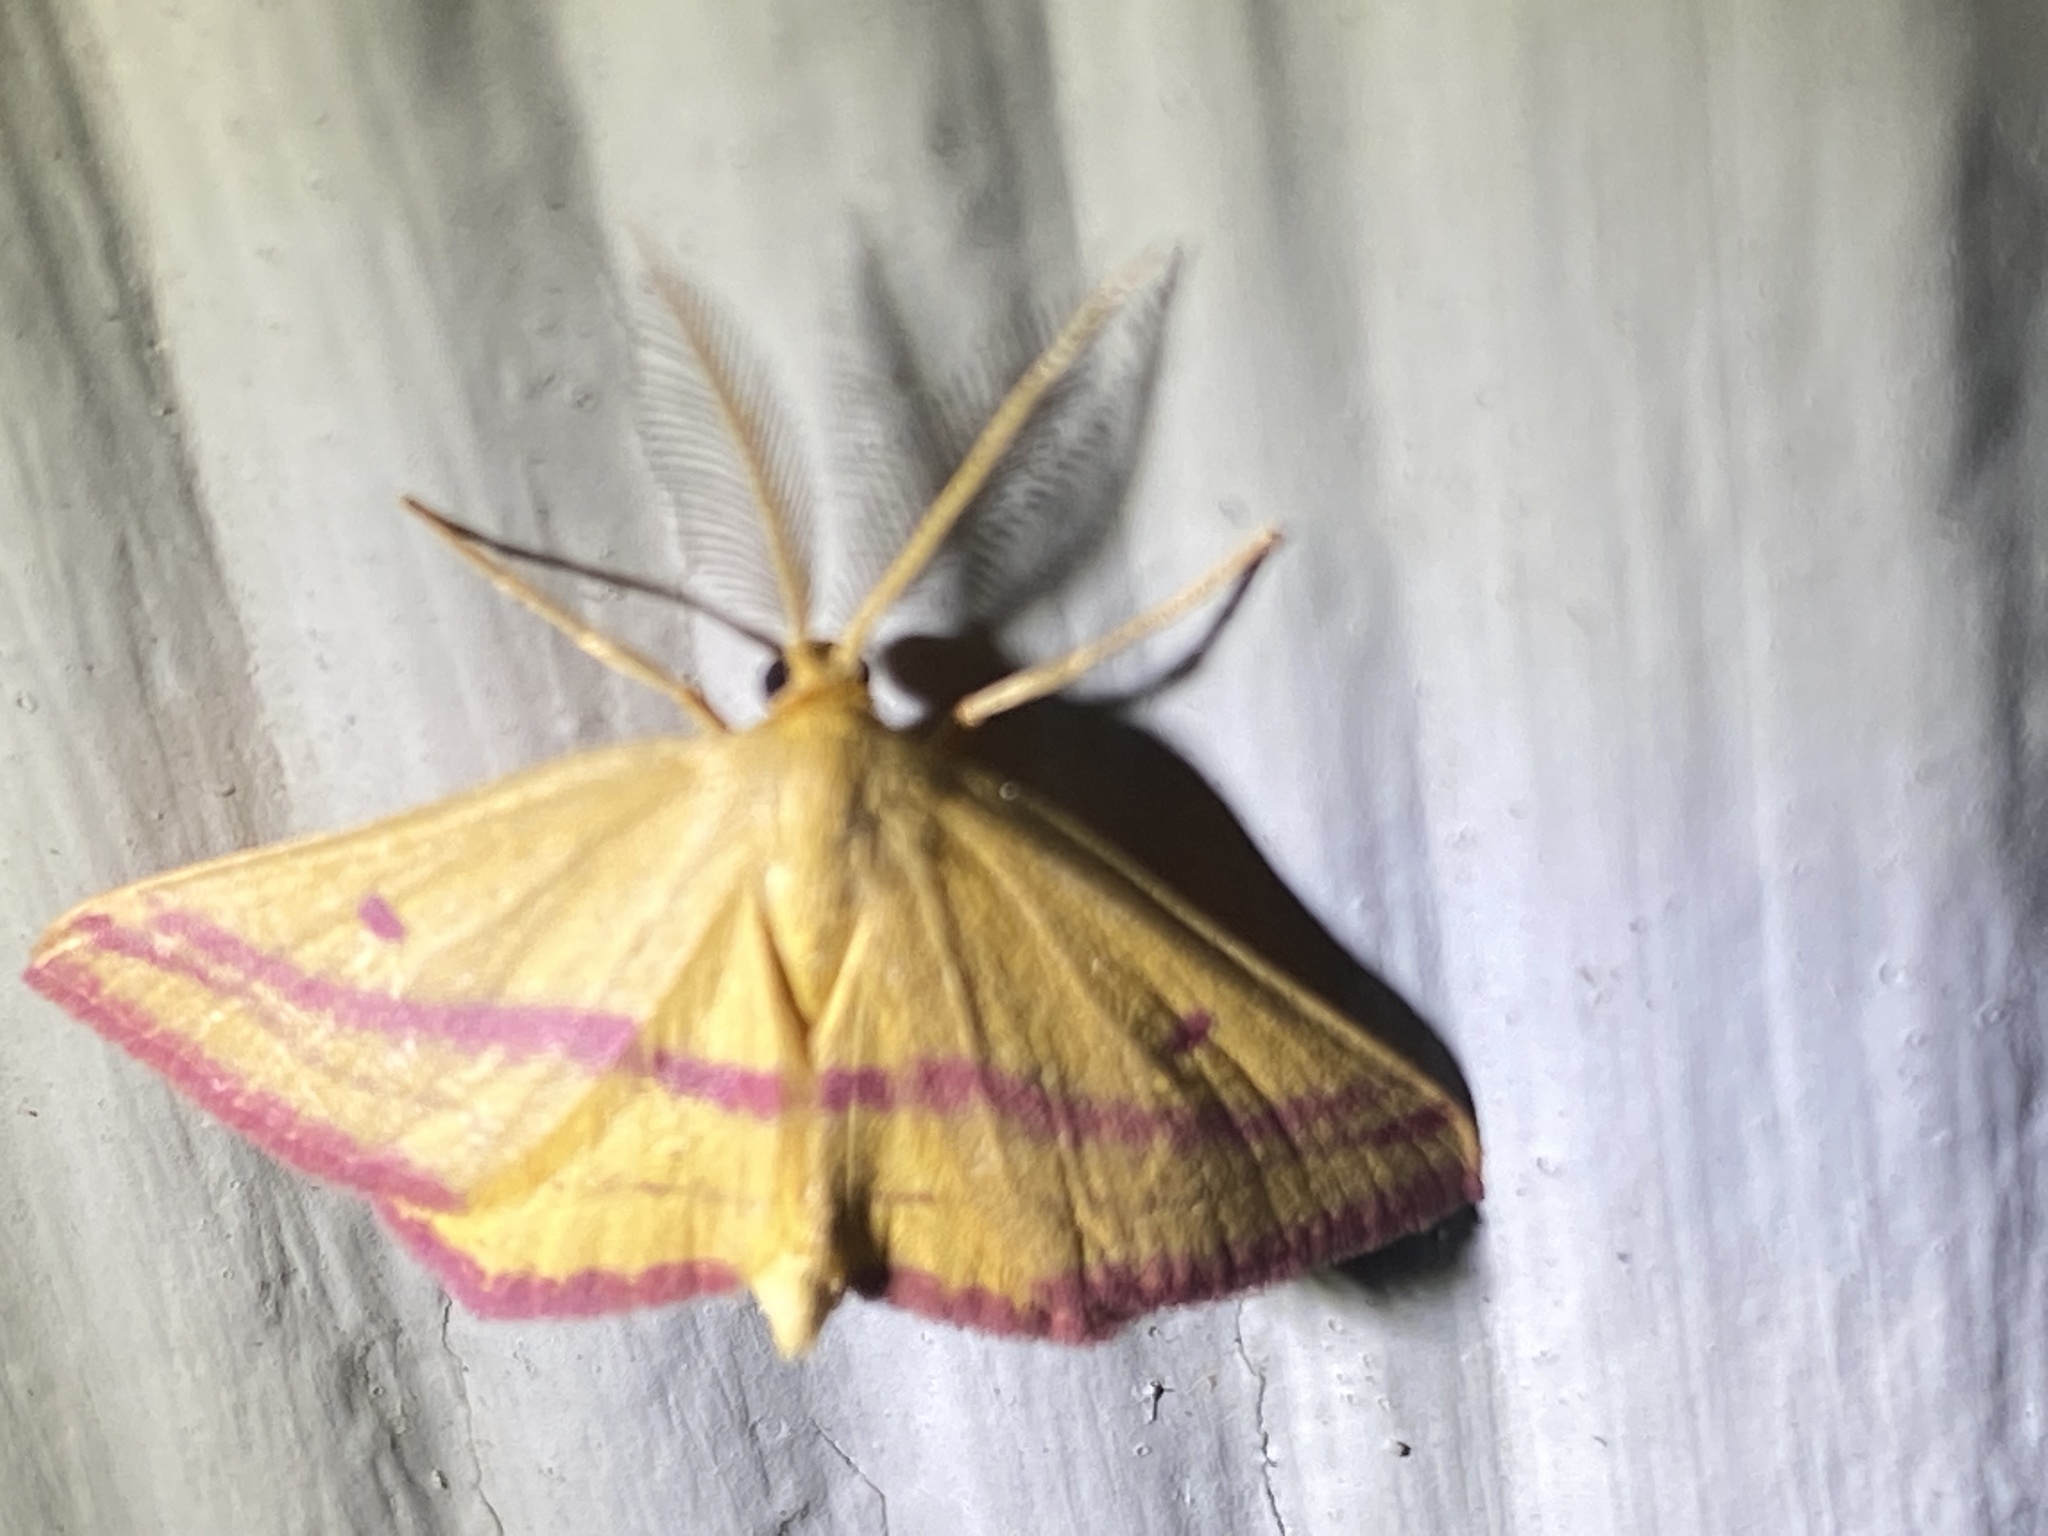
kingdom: Animalia
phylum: Arthropoda
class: Insecta
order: Lepidoptera
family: Geometridae
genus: Haematopis
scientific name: Haematopis grataria
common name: Chickweed geometer
